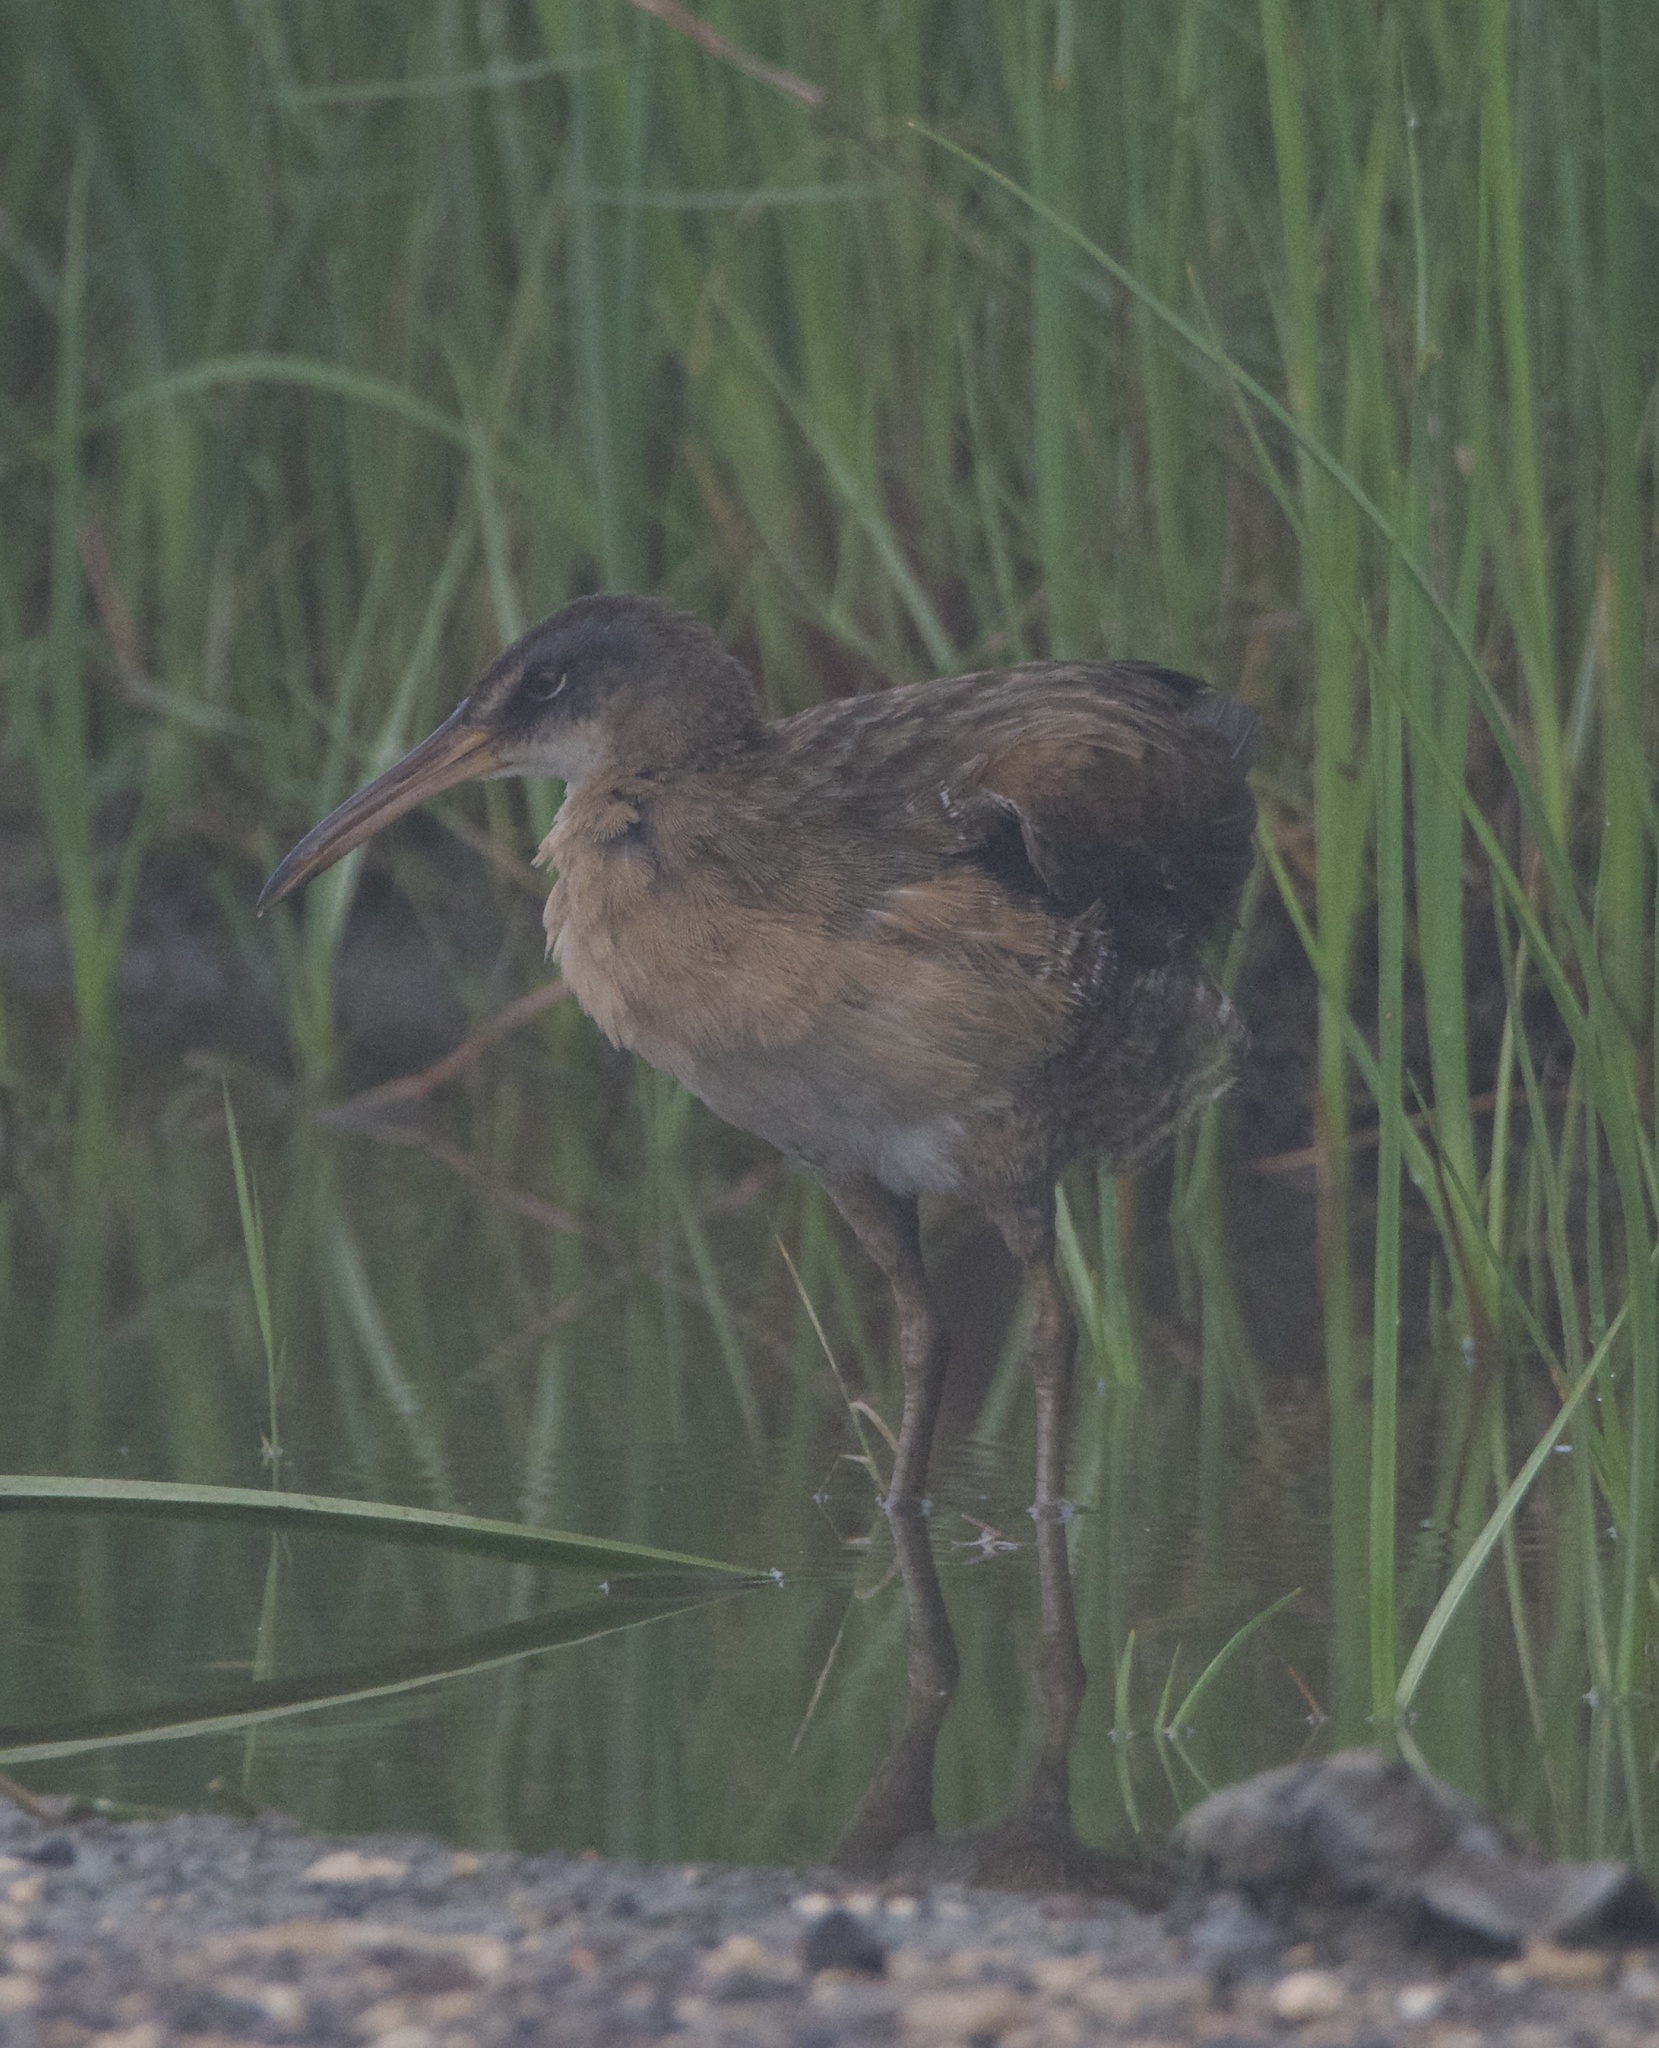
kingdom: Animalia
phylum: Chordata
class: Aves
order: Gruiformes
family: Rallidae
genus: Rallus
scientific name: Rallus crepitans
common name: Clapper rail
